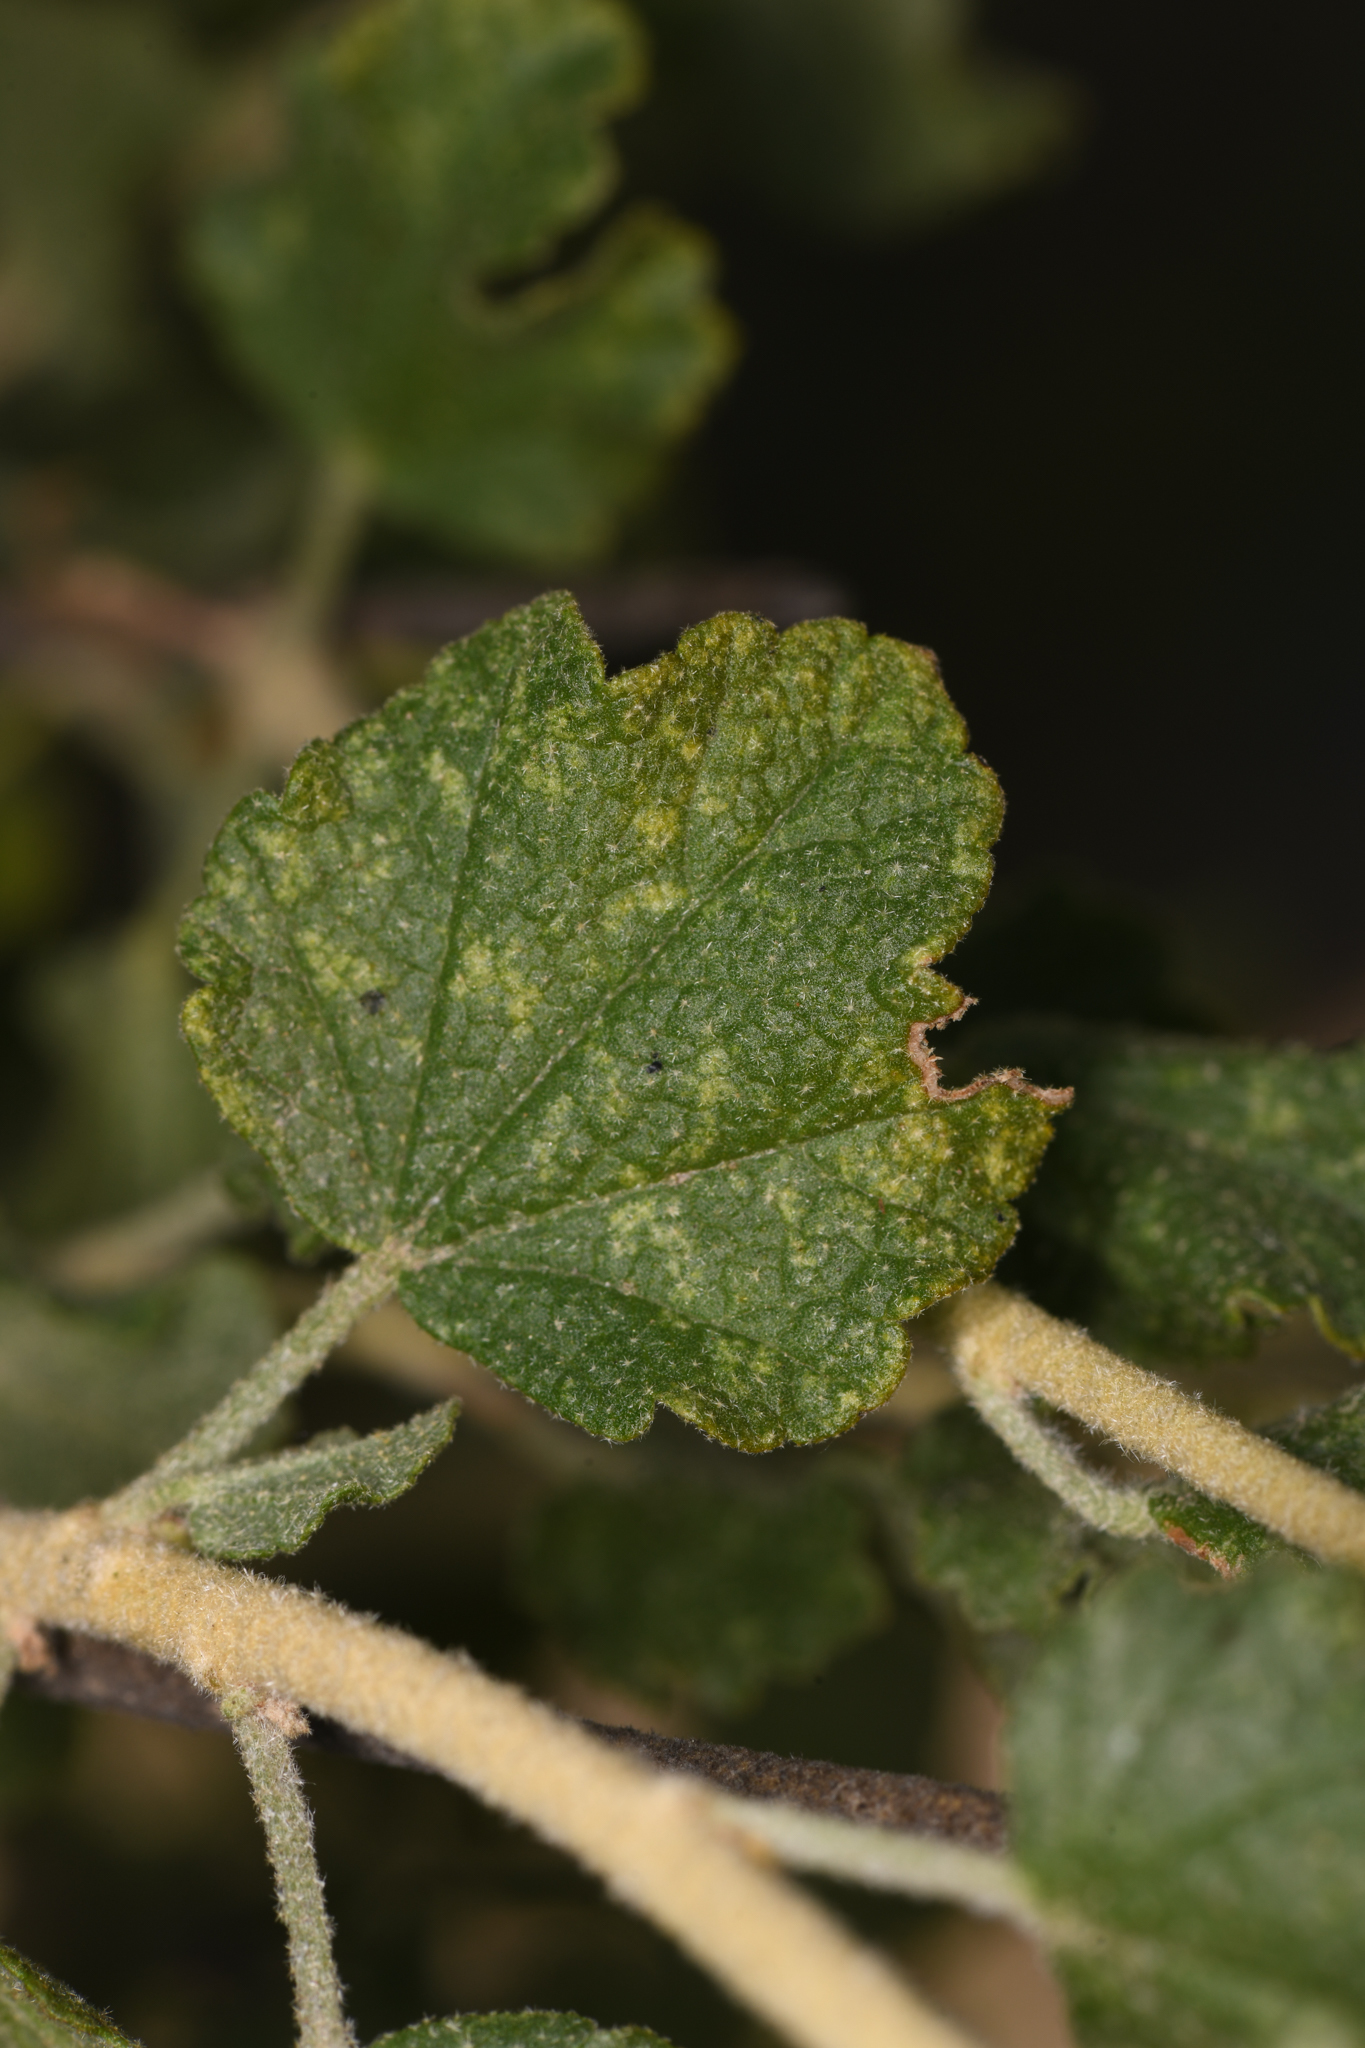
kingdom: Plantae
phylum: Tracheophyta
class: Magnoliopsida
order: Malvales
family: Malvaceae
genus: Malacothamnus
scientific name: Malacothamnus fasciculatus
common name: Sant cruz island bush-mallow
